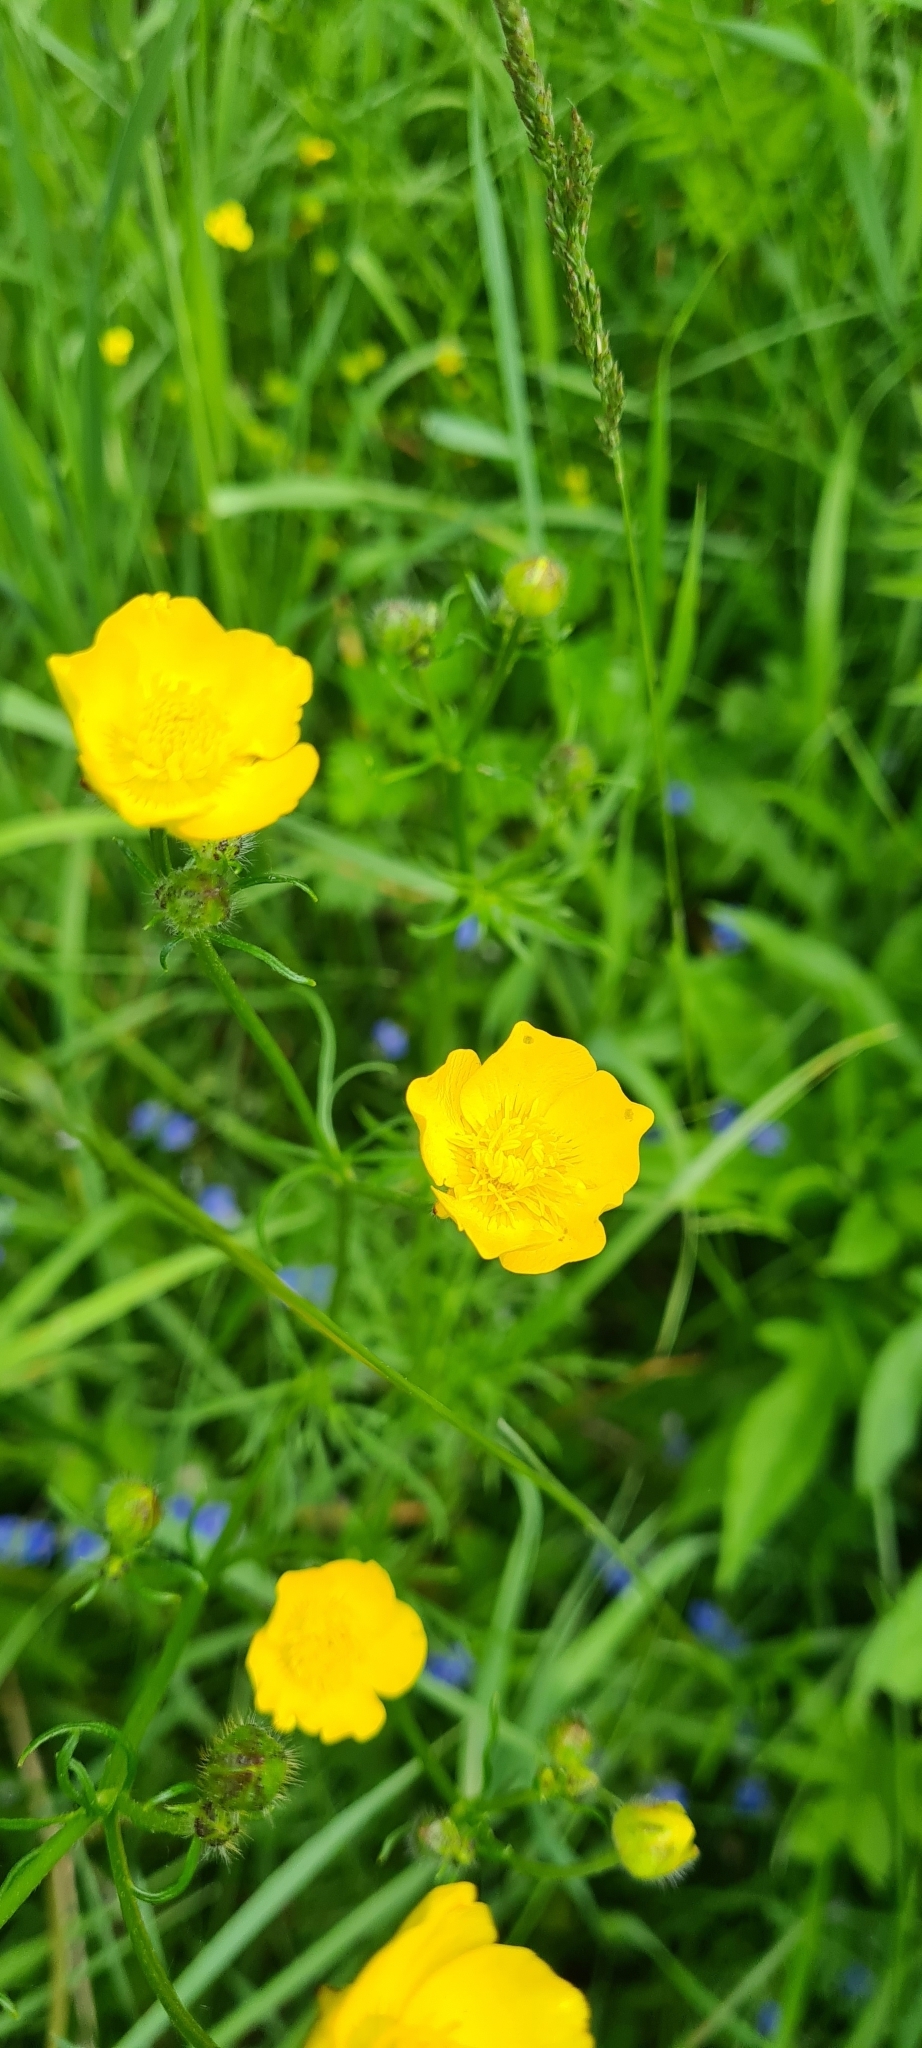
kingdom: Plantae
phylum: Tracheophyta
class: Magnoliopsida
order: Ranunculales
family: Ranunculaceae
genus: Ranunculus
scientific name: Ranunculus polyanthemos
